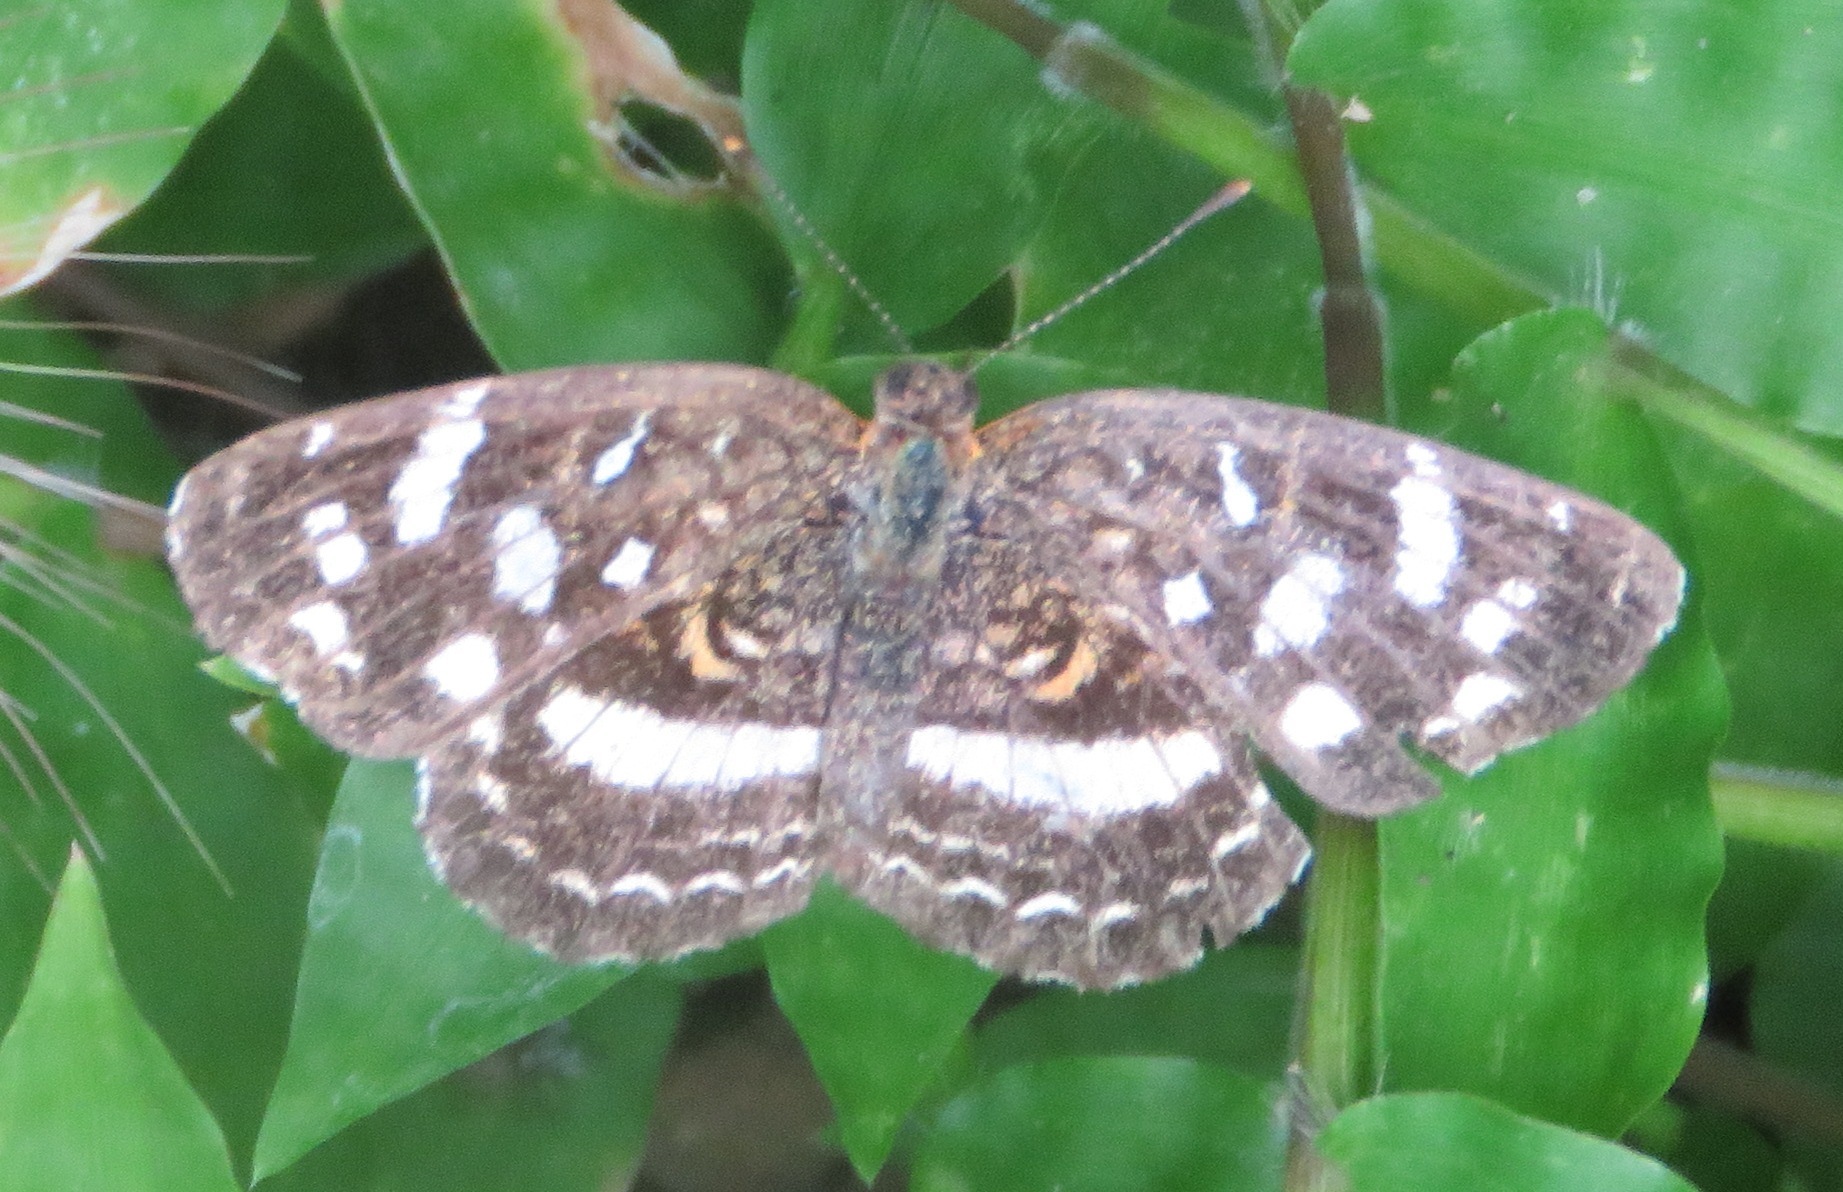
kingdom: Animalia
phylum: Arthropoda
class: Insecta
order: Lepidoptera
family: Nymphalidae
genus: Anthanassa
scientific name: Anthanassa tulcis
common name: Pale-banded crescent
